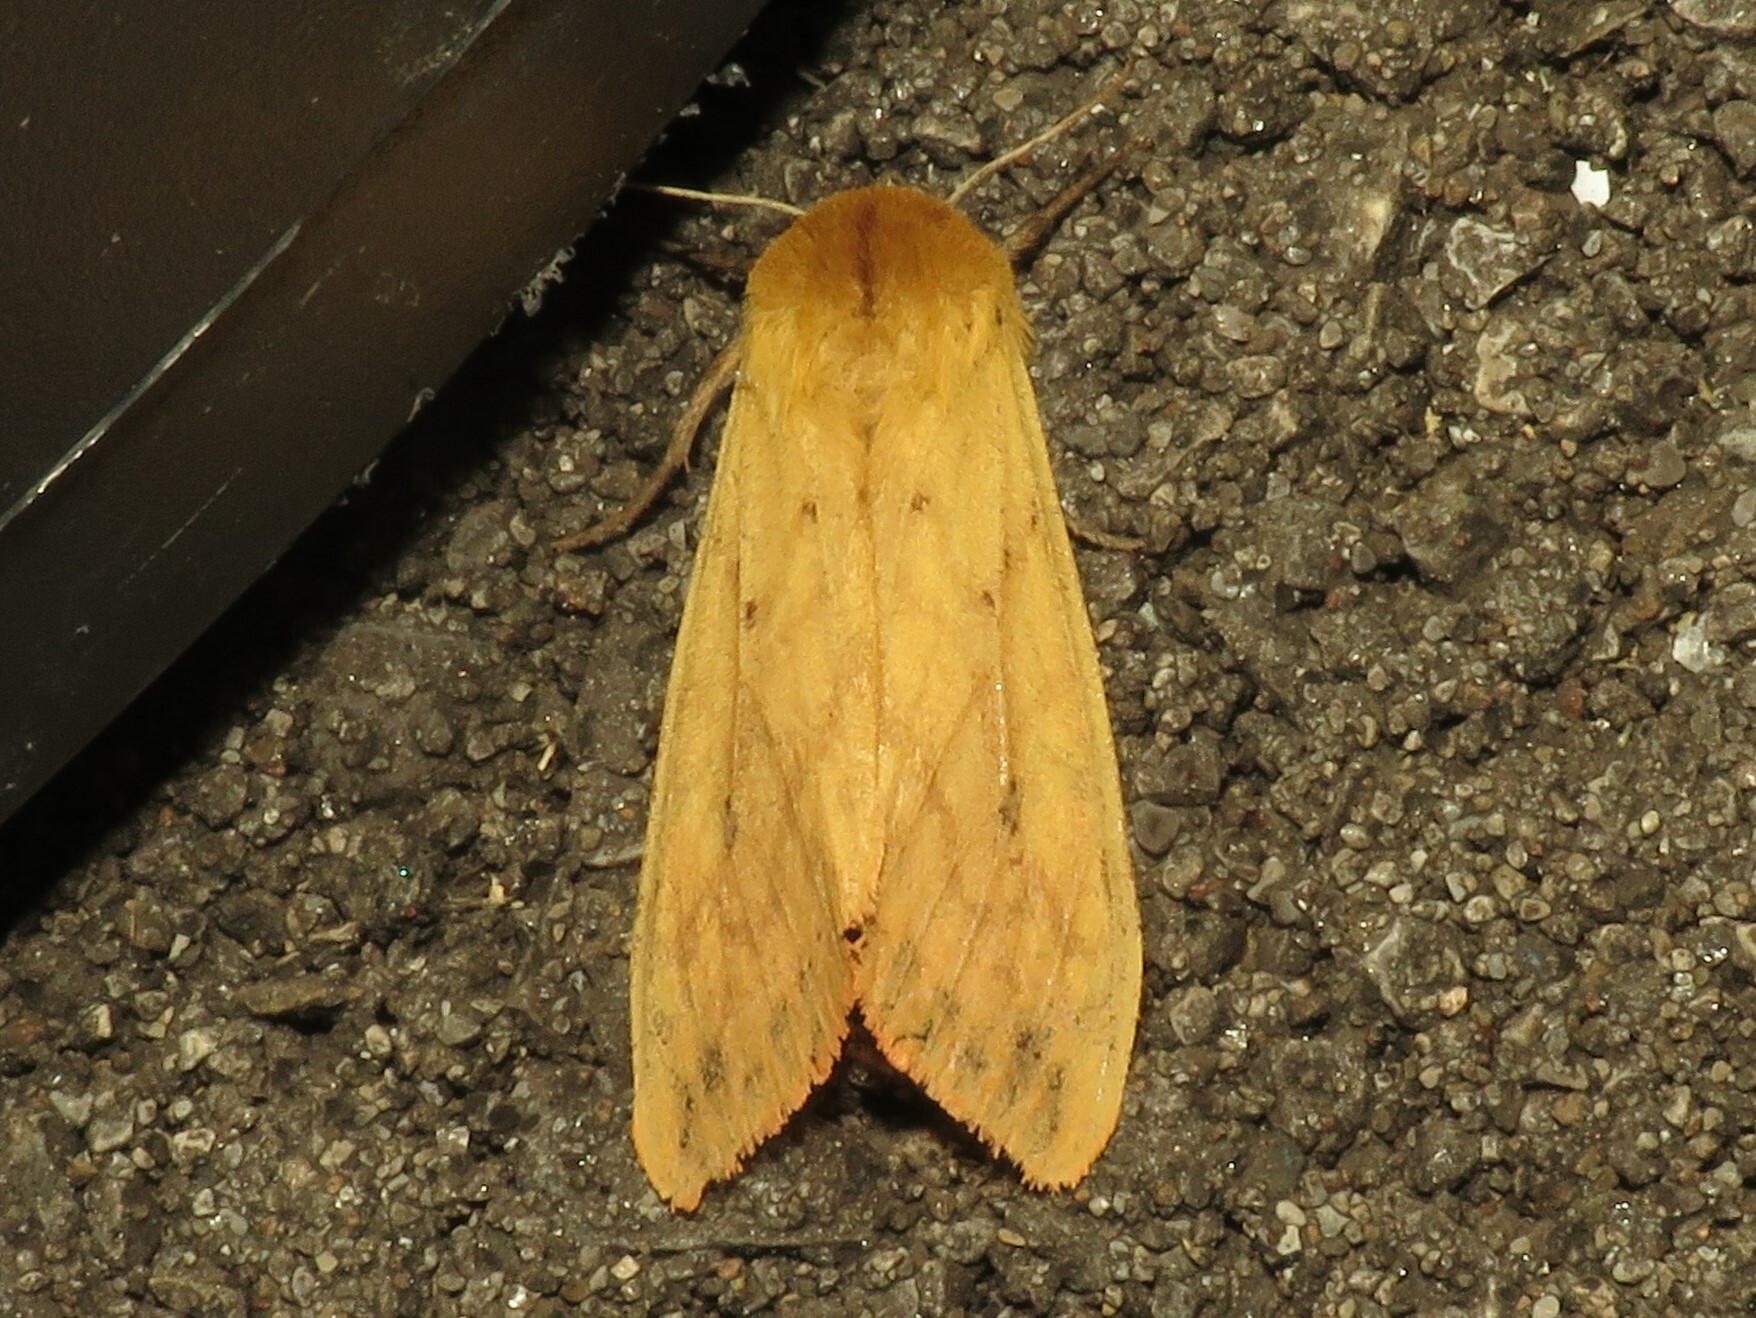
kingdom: Animalia
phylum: Arthropoda
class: Insecta
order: Lepidoptera
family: Erebidae
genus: Pyrrharctia
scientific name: Pyrrharctia isabella
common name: Isabella tiger moth
